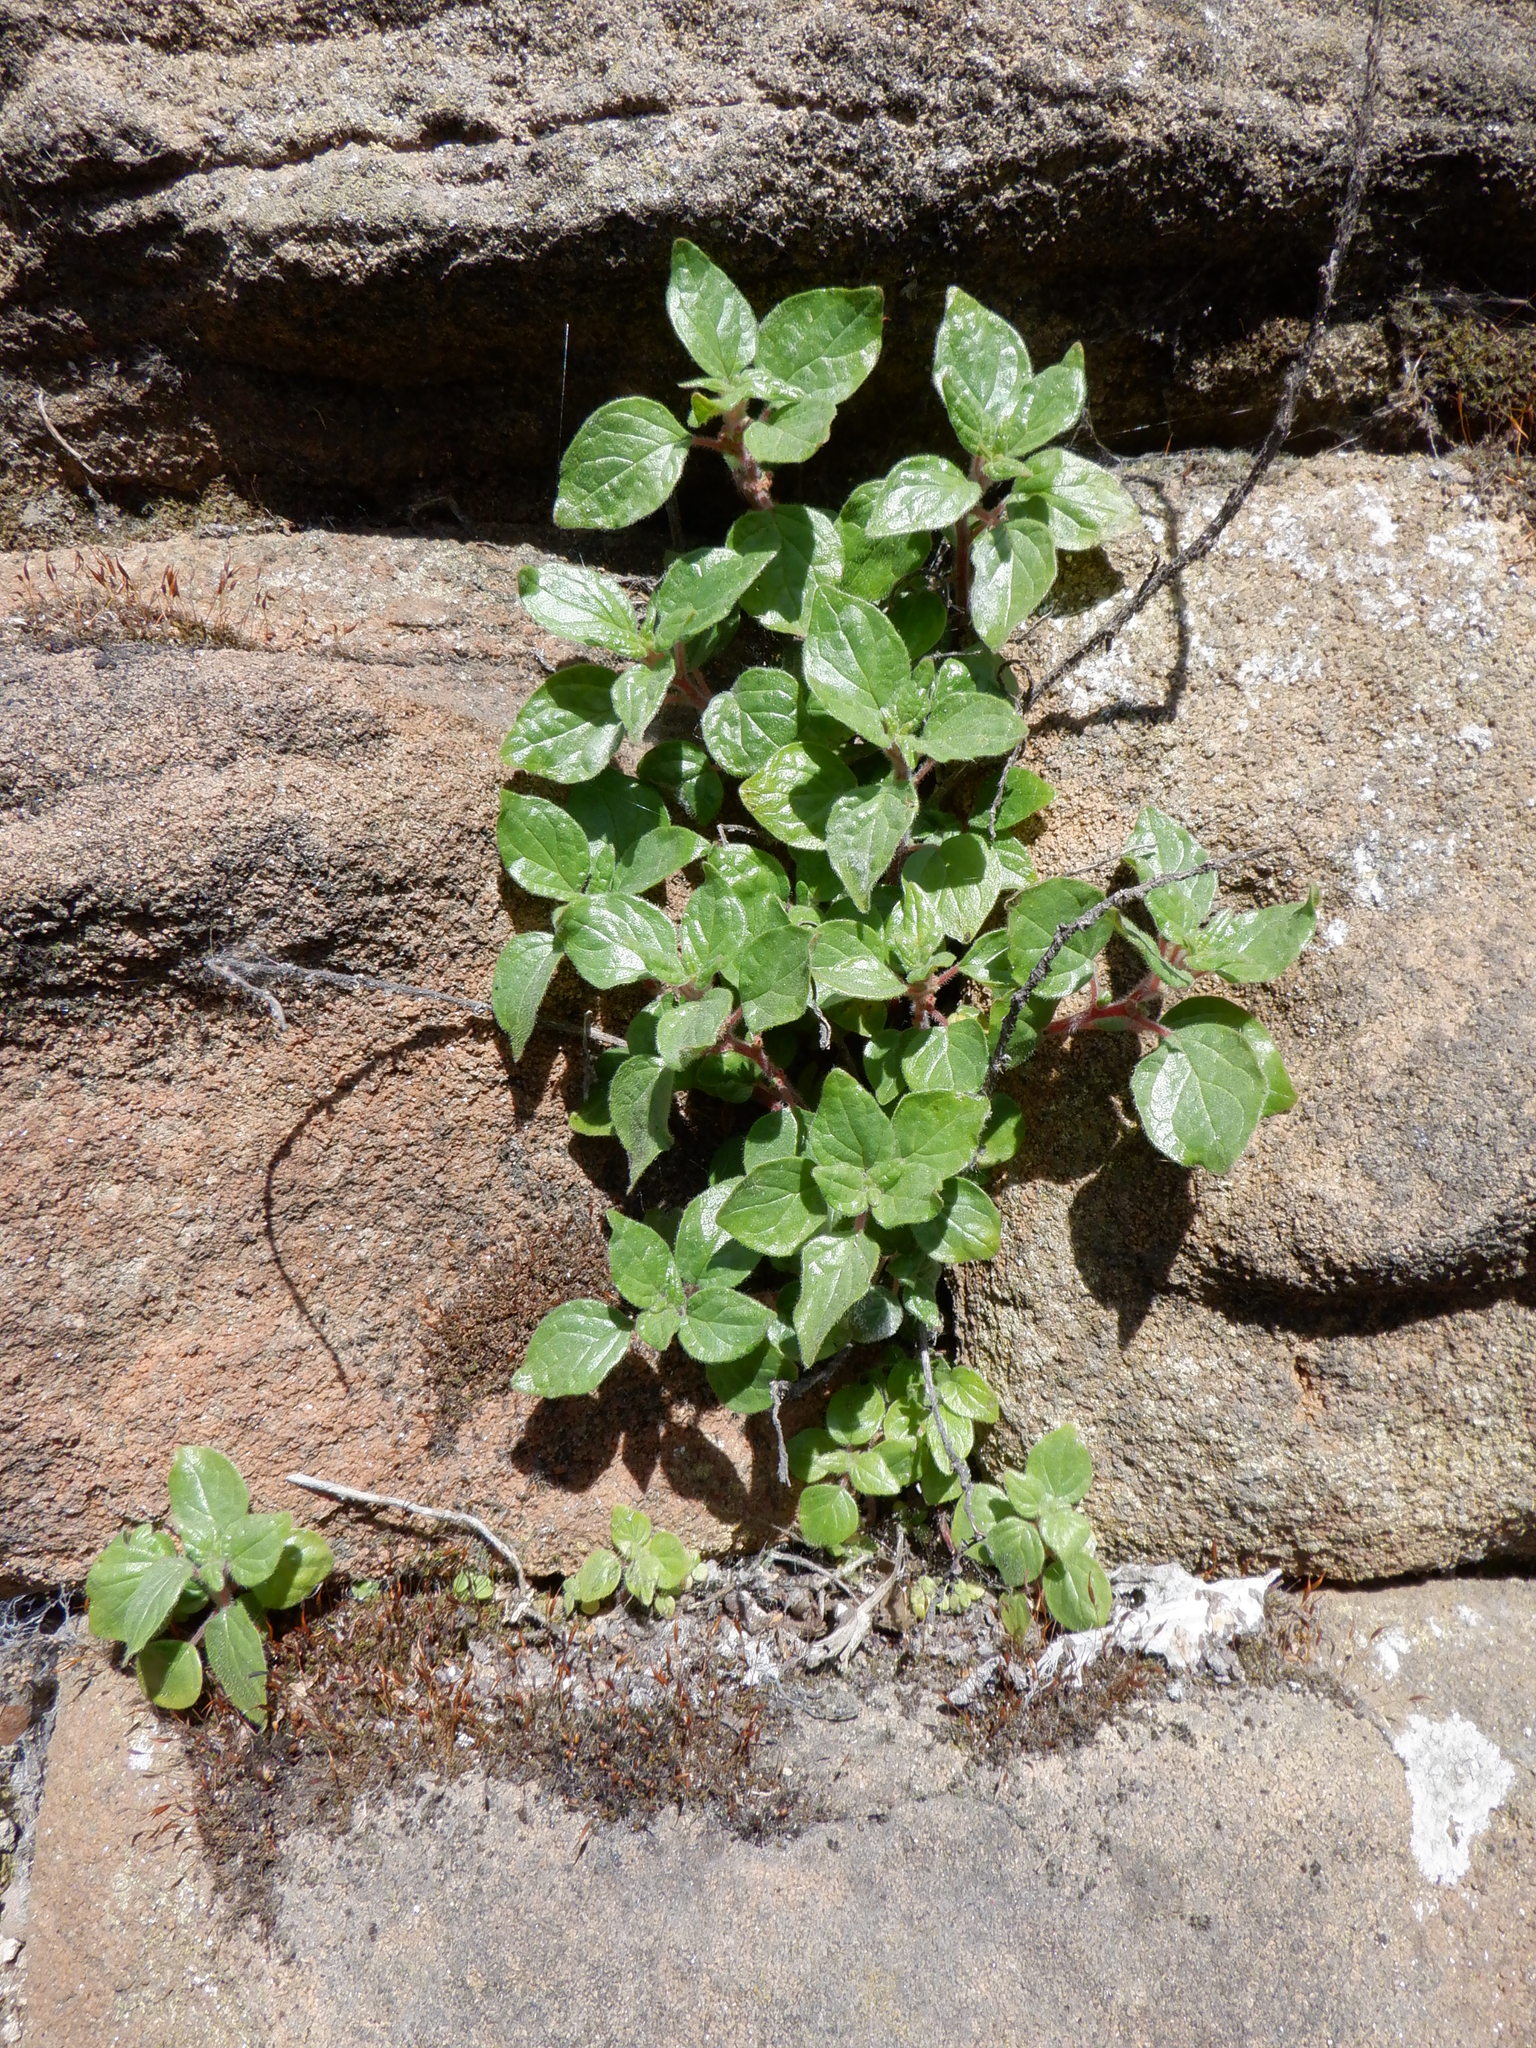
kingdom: Plantae
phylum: Tracheophyta
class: Magnoliopsida
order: Rosales
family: Urticaceae
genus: Parietaria
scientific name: Parietaria judaica
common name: Pellitory-of-the-wall
